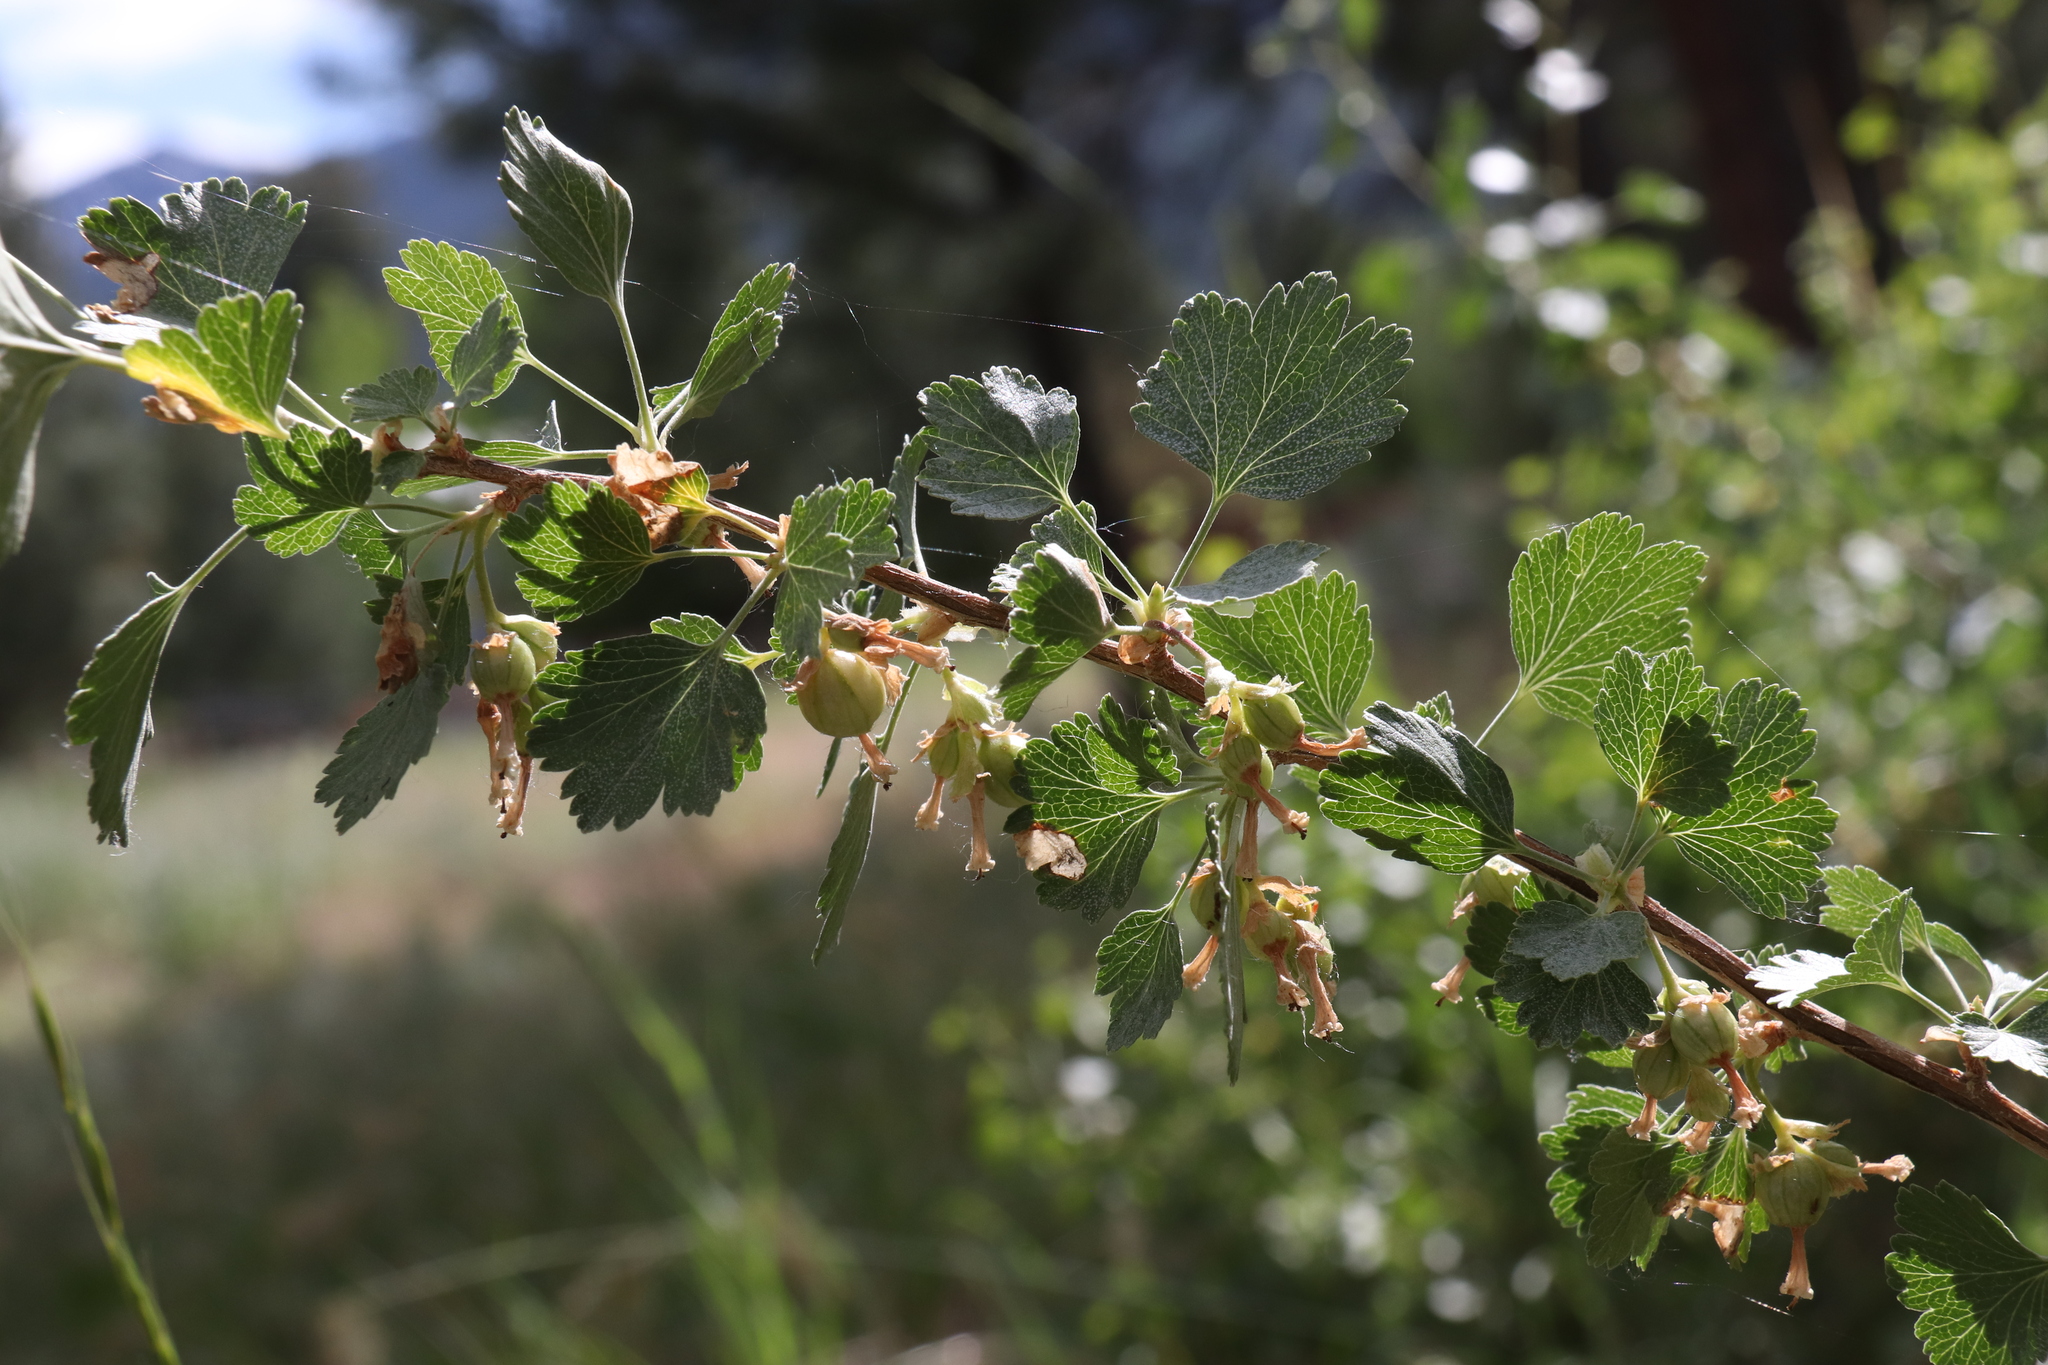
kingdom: Plantae
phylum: Tracheophyta
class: Magnoliopsida
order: Saxifragales
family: Grossulariaceae
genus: Ribes
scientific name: Ribes cereum
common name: Wax currant
